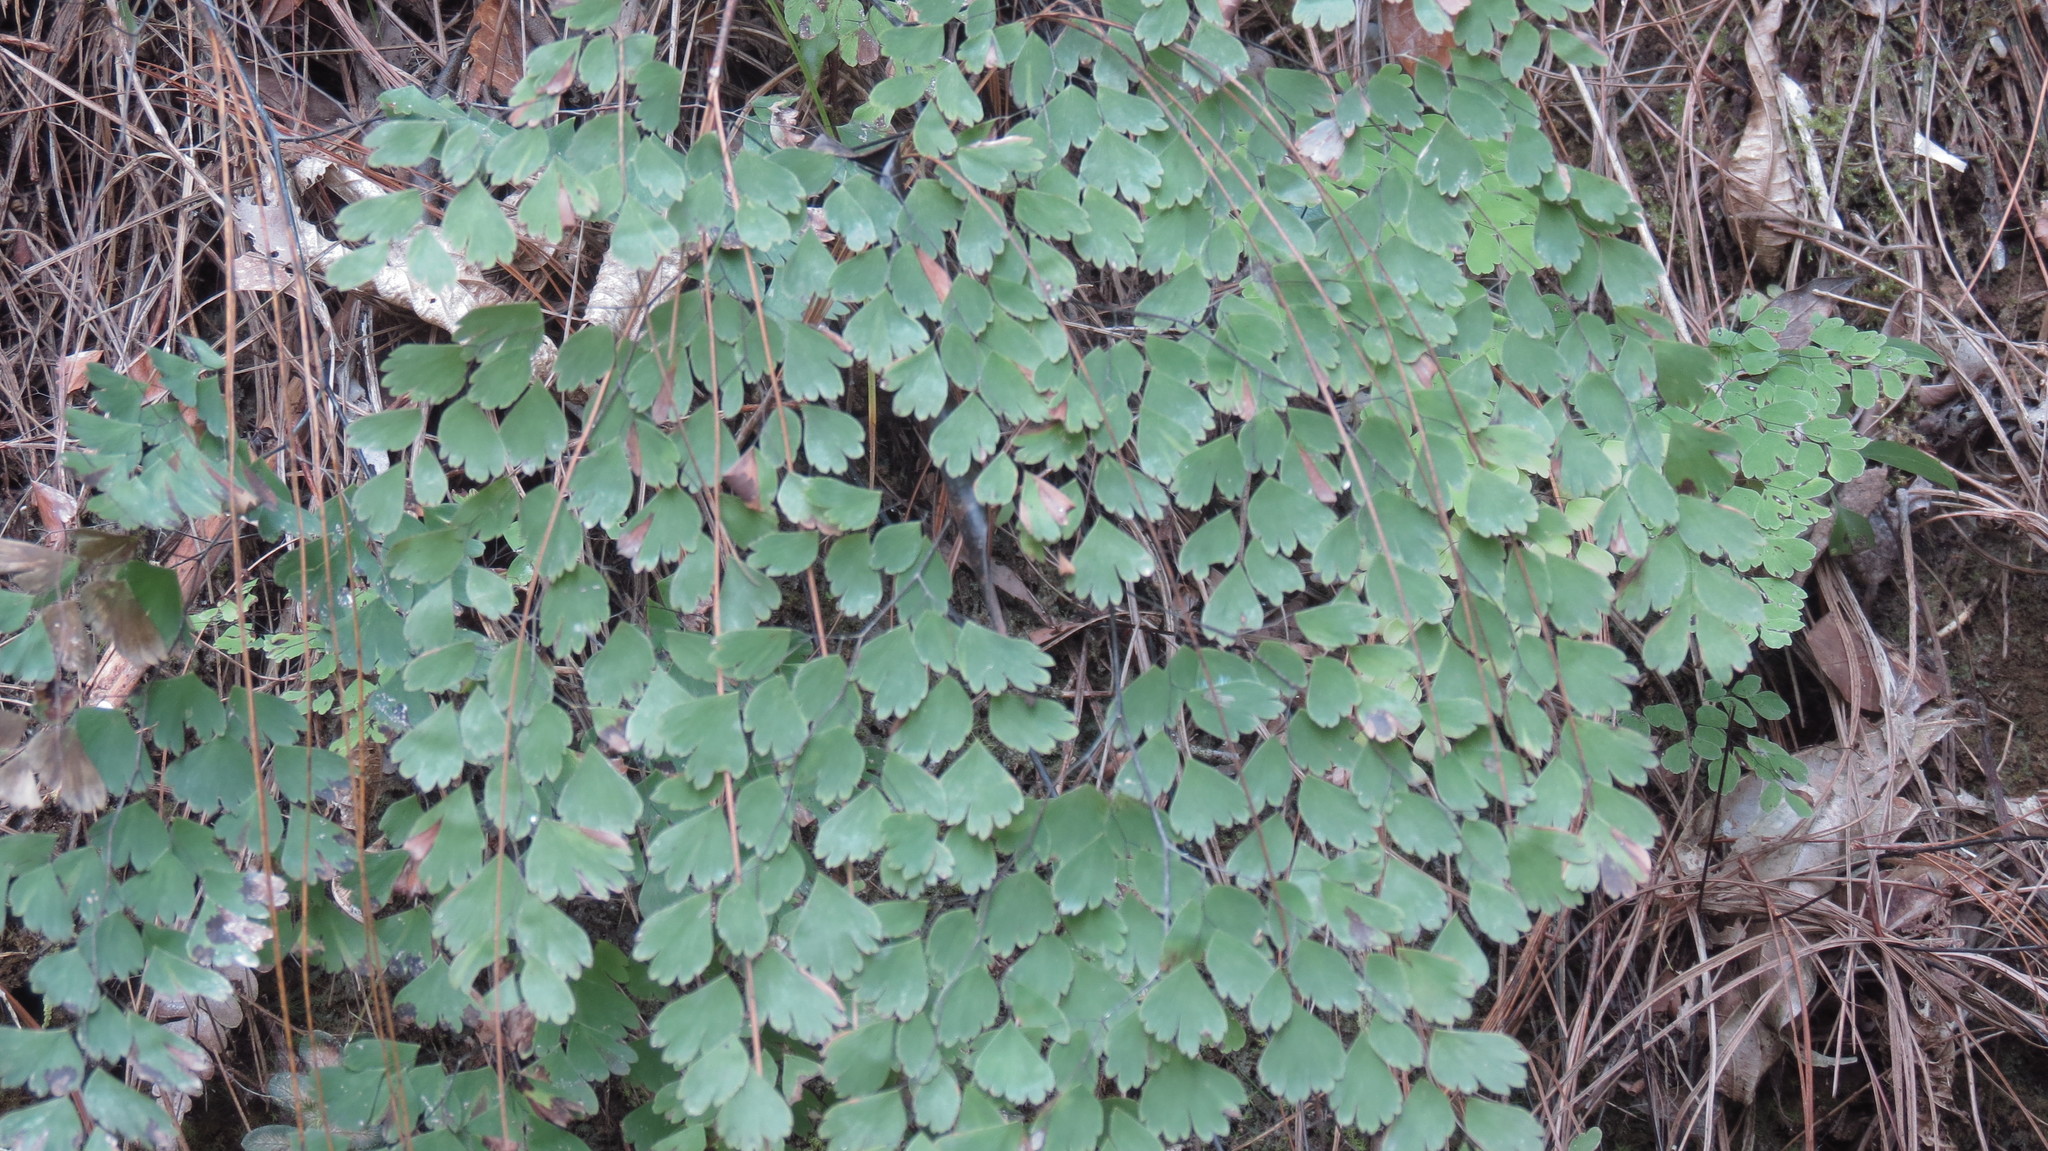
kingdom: Plantae
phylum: Tracheophyta
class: Polypodiopsida
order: Polypodiales
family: Pteridaceae
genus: Adiantum
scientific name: Adiantum andicola
